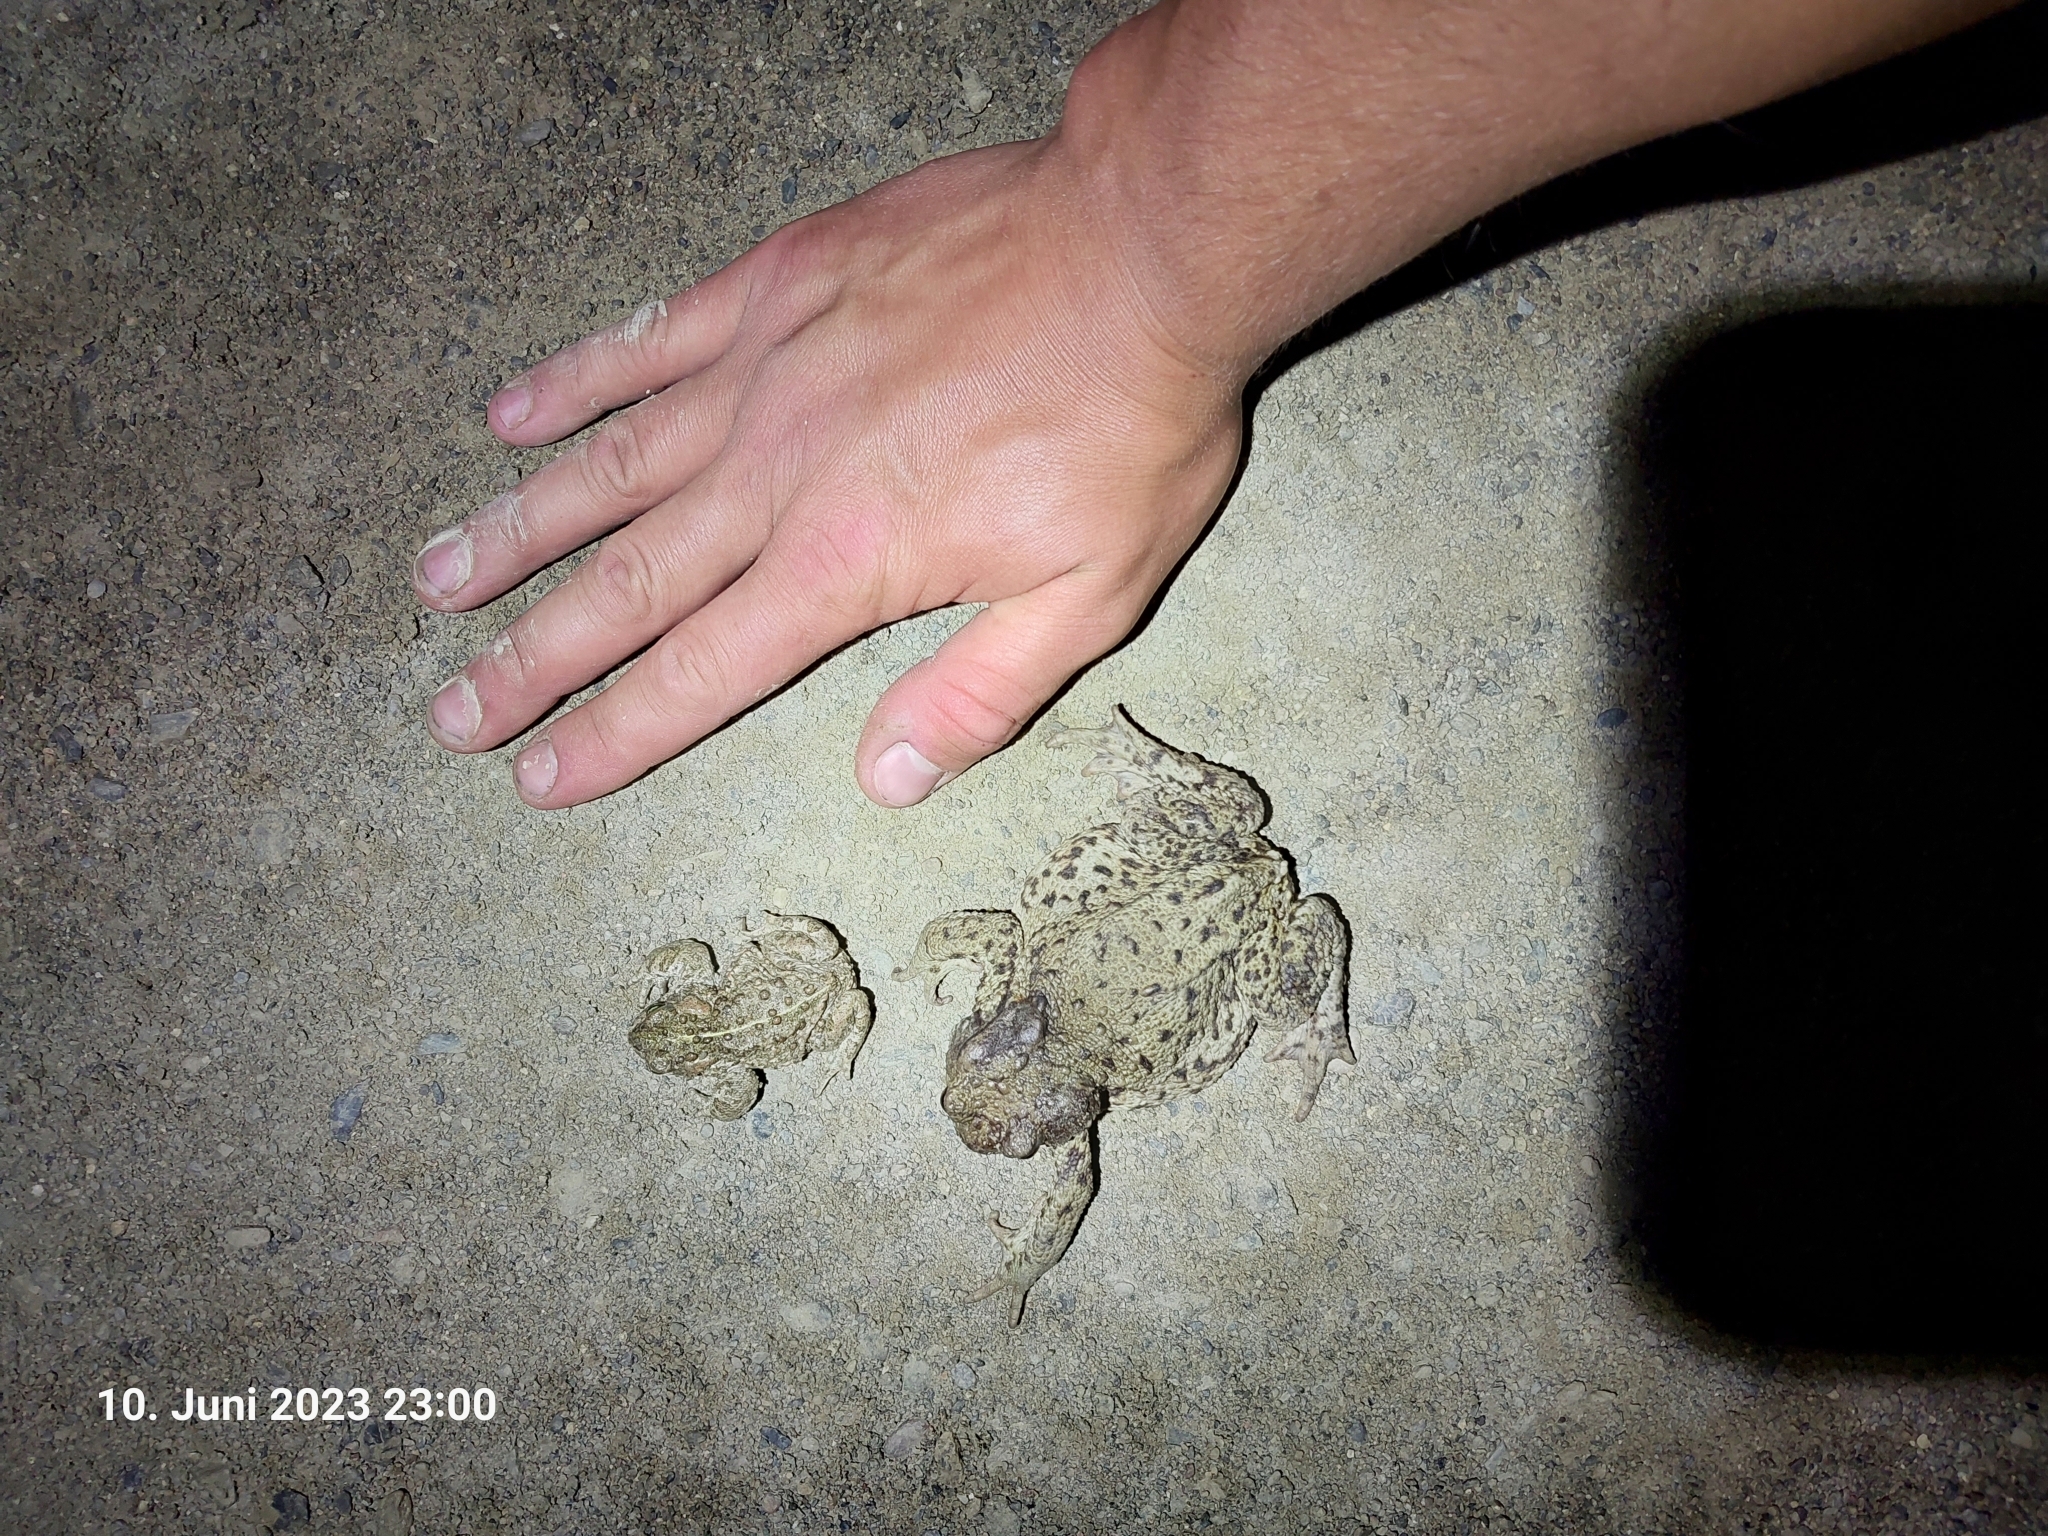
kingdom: Animalia
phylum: Chordata
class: Amphibia
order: Anura
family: Bufonidae
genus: Bufo
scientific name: Bufo bufo
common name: Common toad
